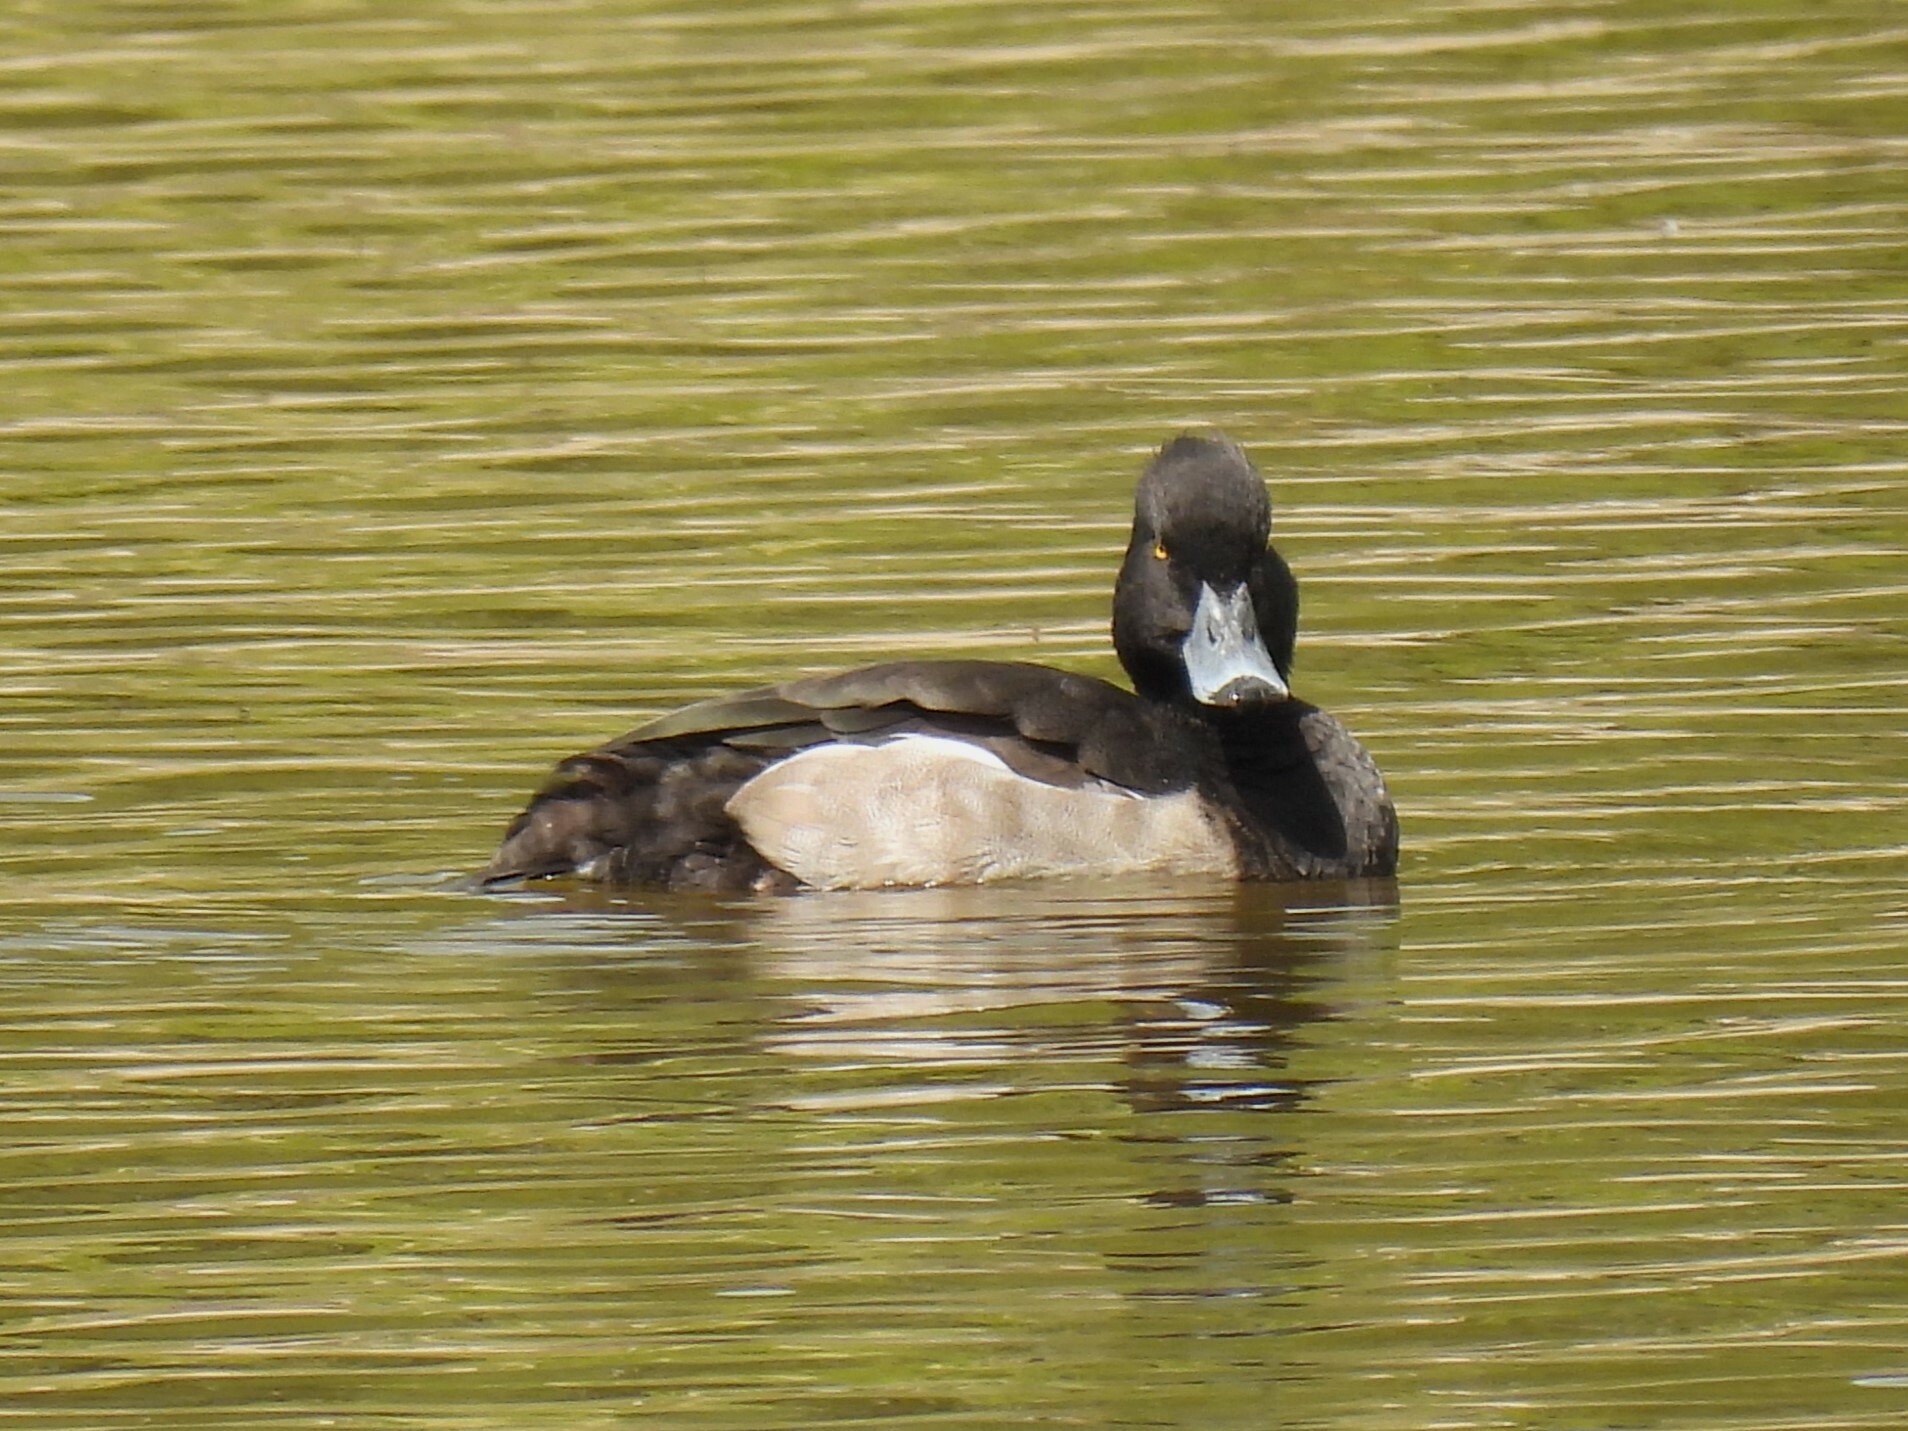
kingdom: Animalia
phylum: Chordata
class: Aves
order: Anseriformes
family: Anatidae
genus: Aythya
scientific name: Aythya fuligula
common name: Tufted duck
